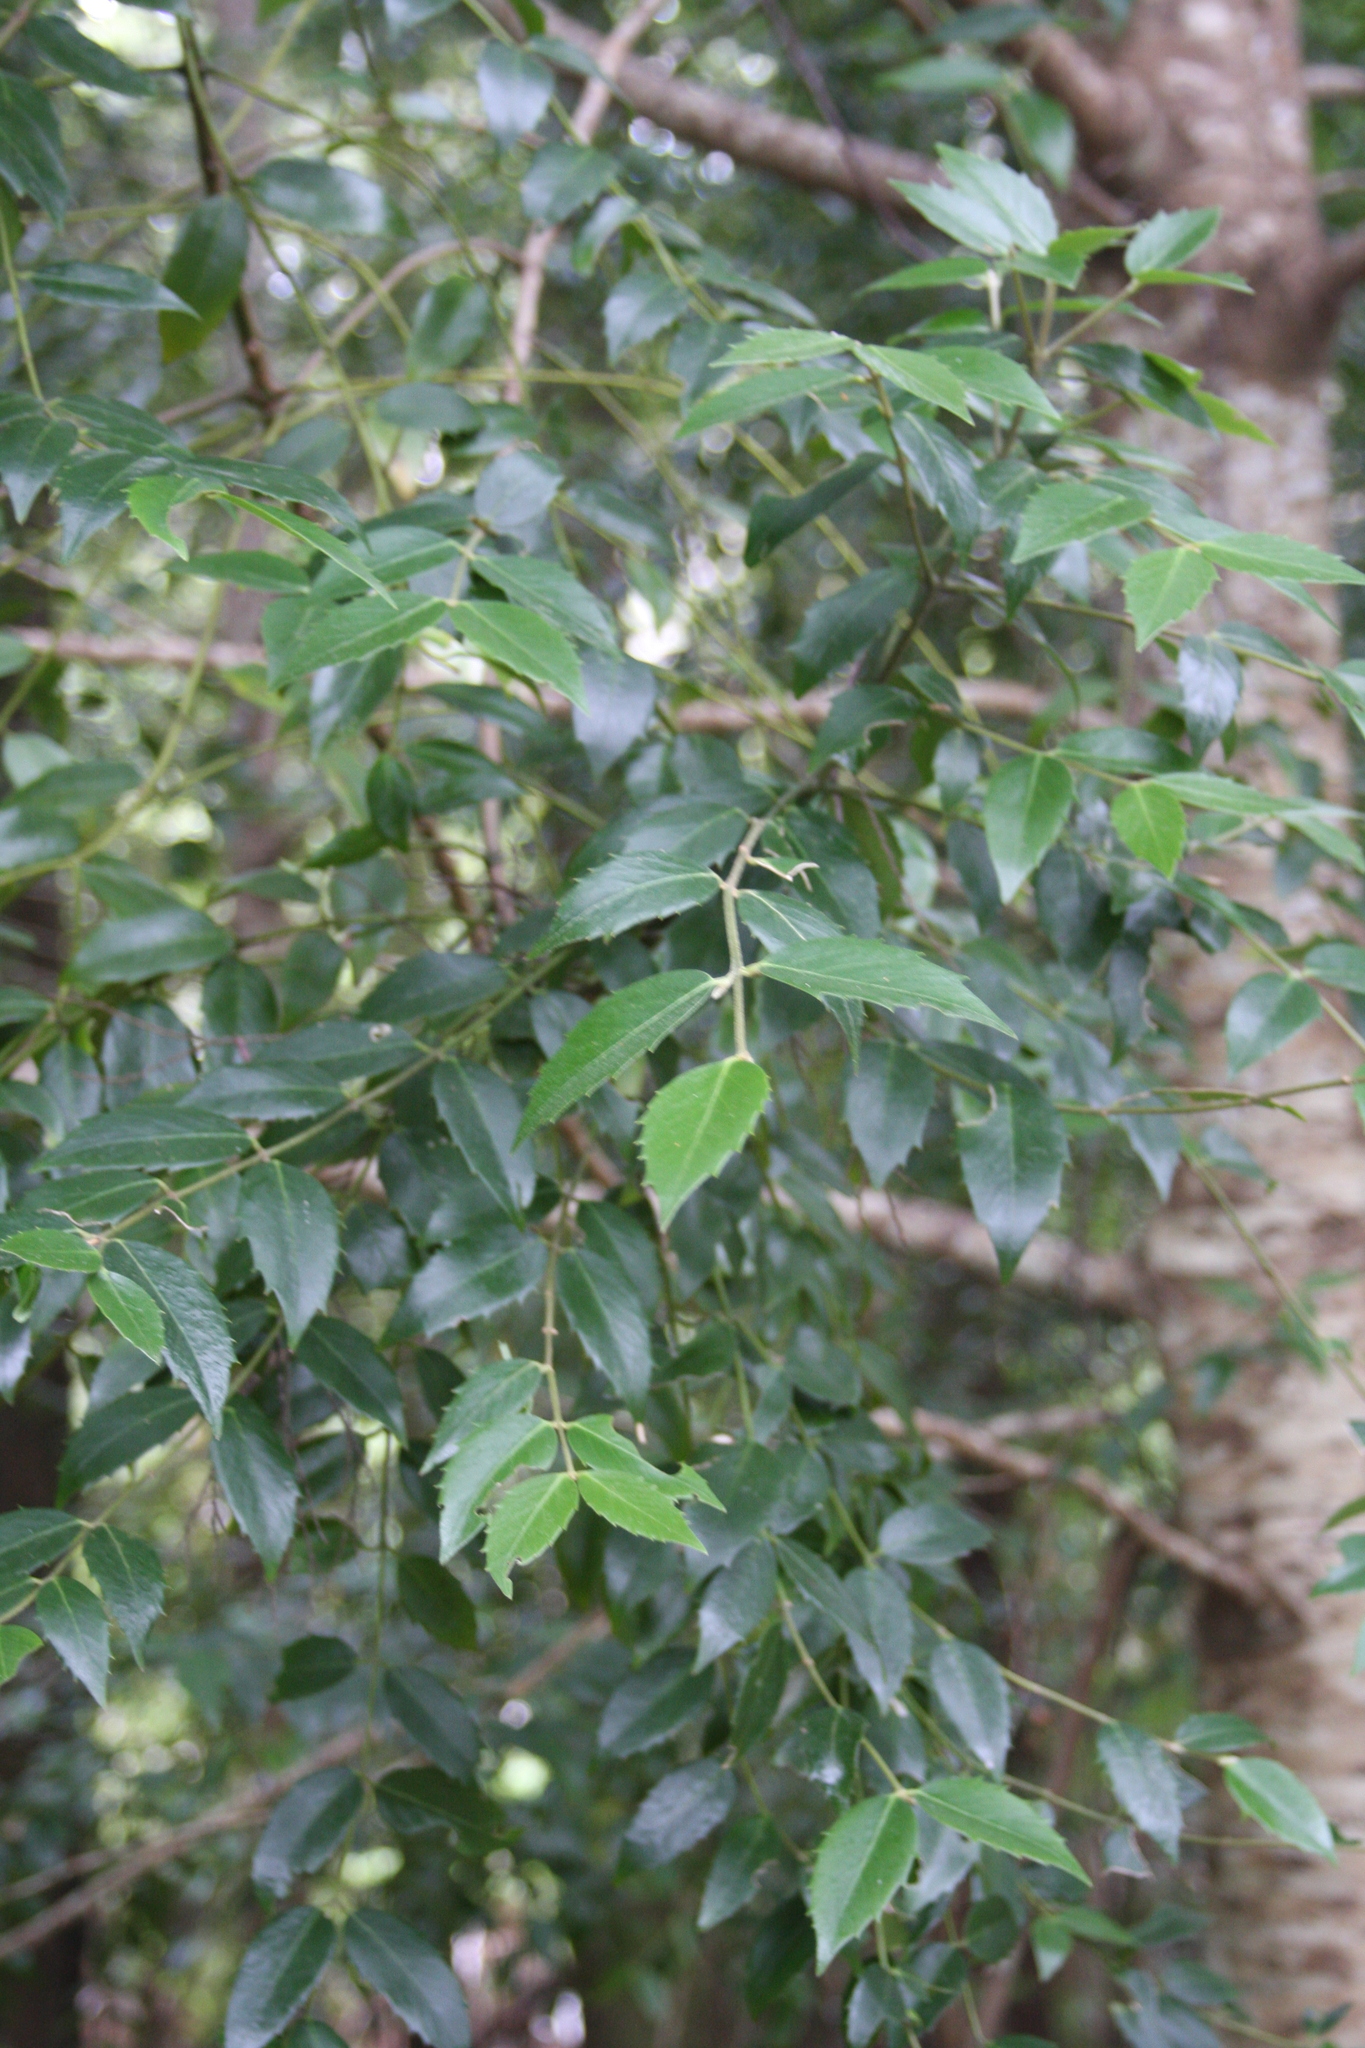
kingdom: Plantae
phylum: Tracheophyta
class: Magnoliopsida
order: Laurales
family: Atherospermataceae
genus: Atherosperma
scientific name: Atherosperma moschatum
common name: Tasmanian-sassafras
